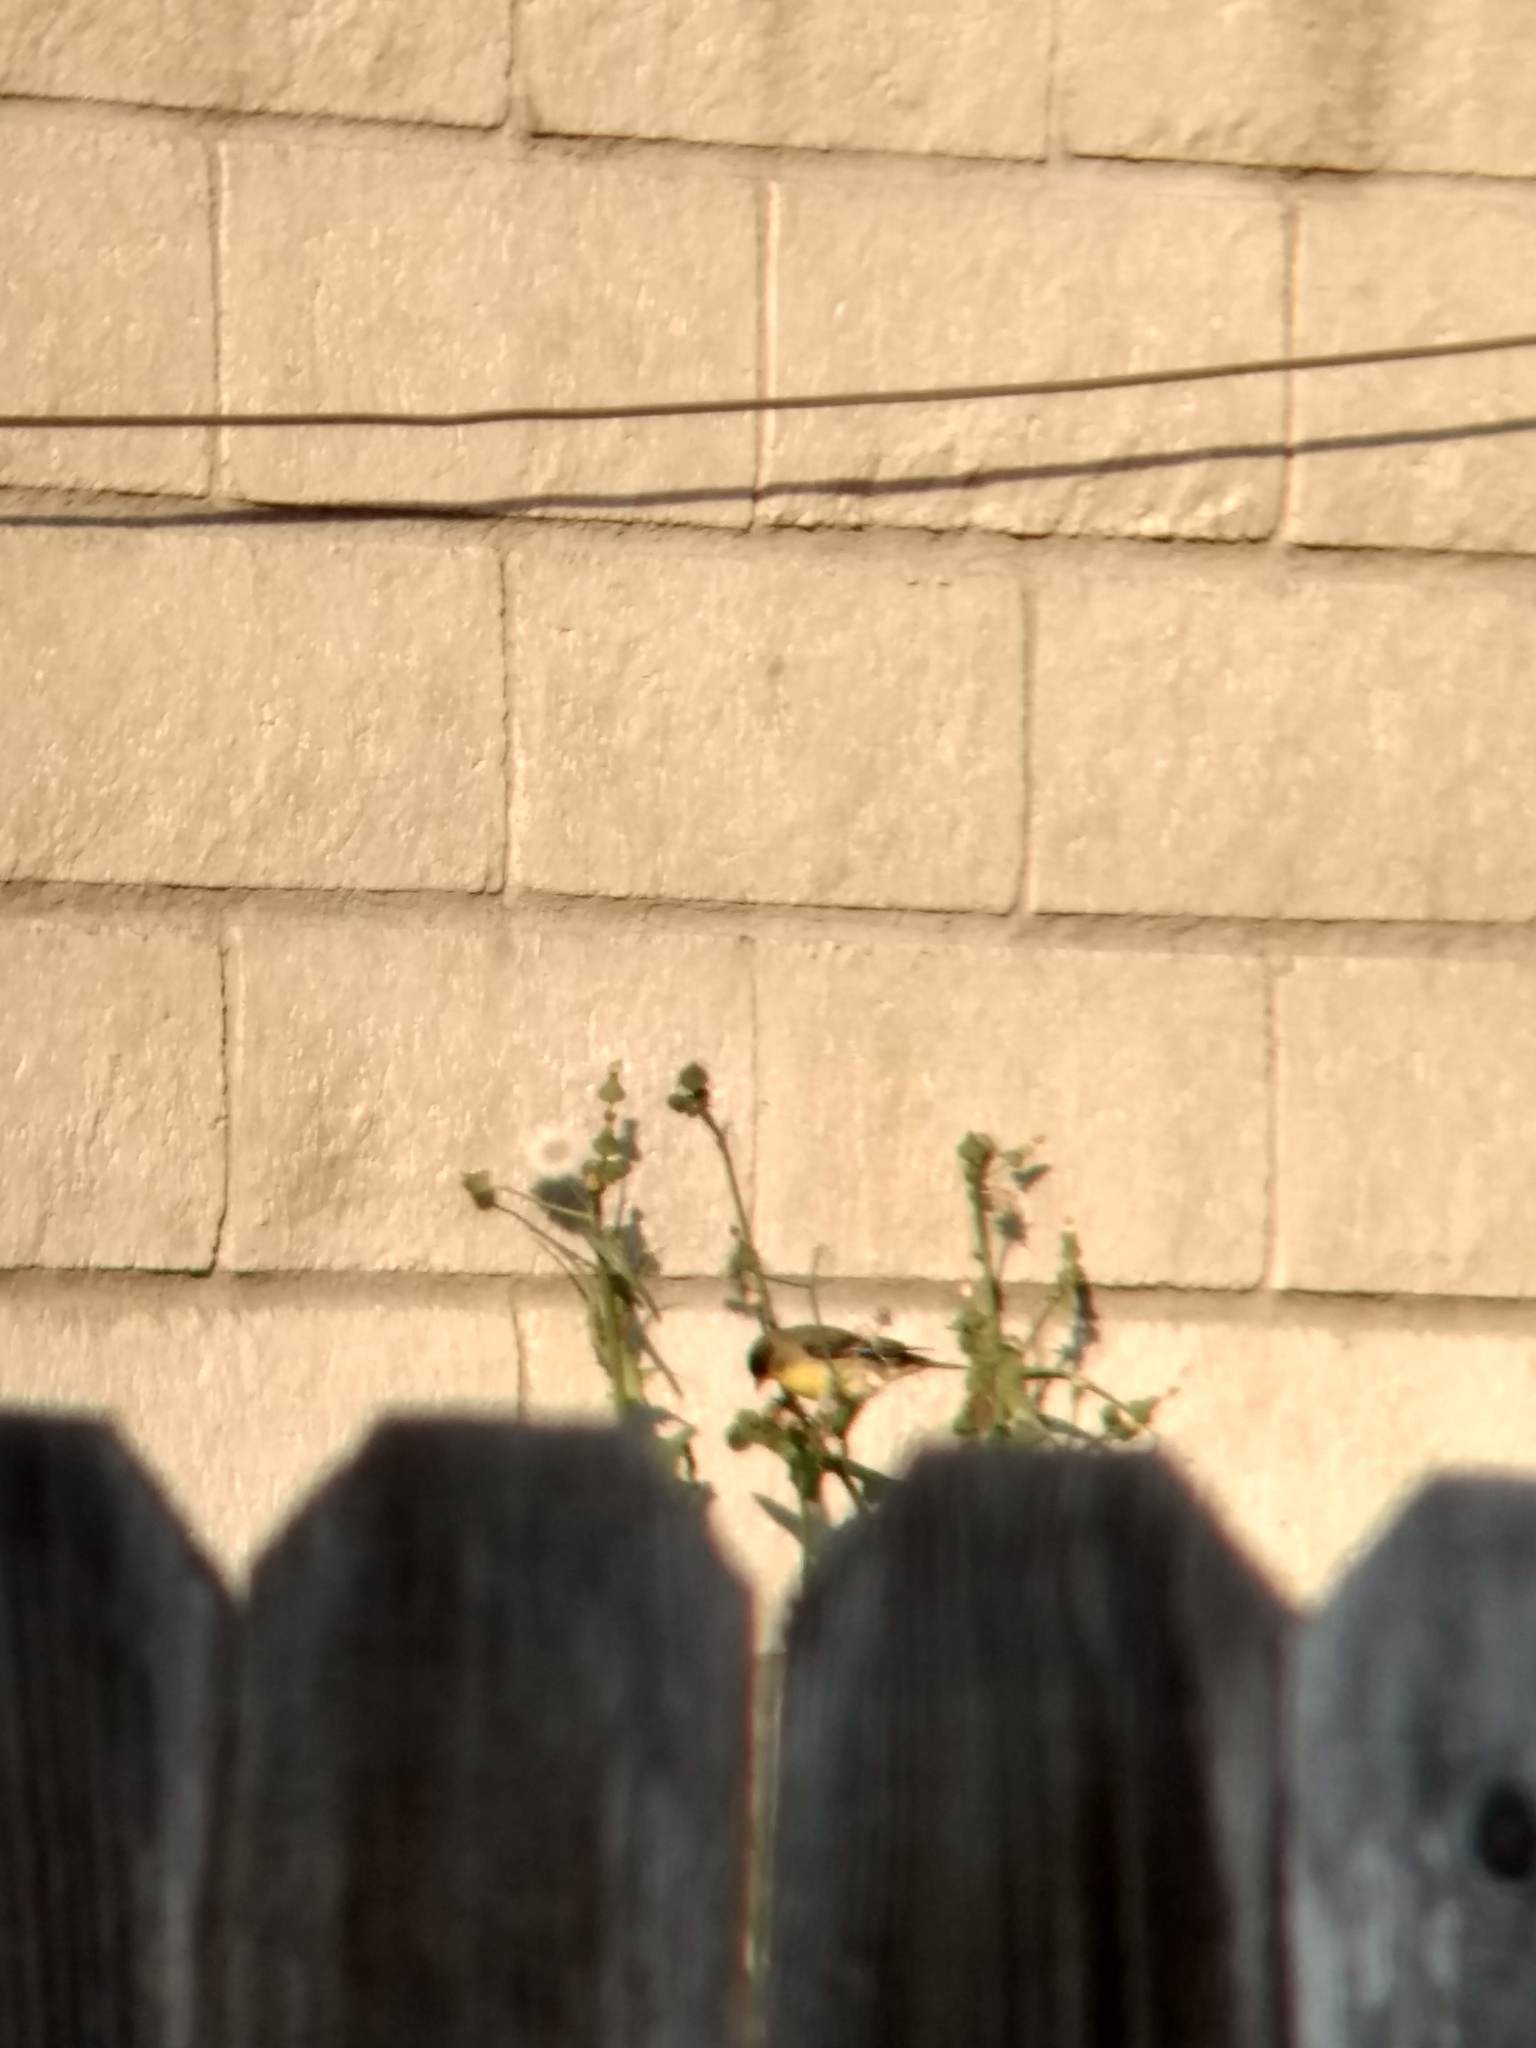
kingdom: Animalia
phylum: Chordata
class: Aves
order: Passeriformes
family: Fringillidae
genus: Spinus
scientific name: Spinus psaltria
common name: Lesser goldfinch
